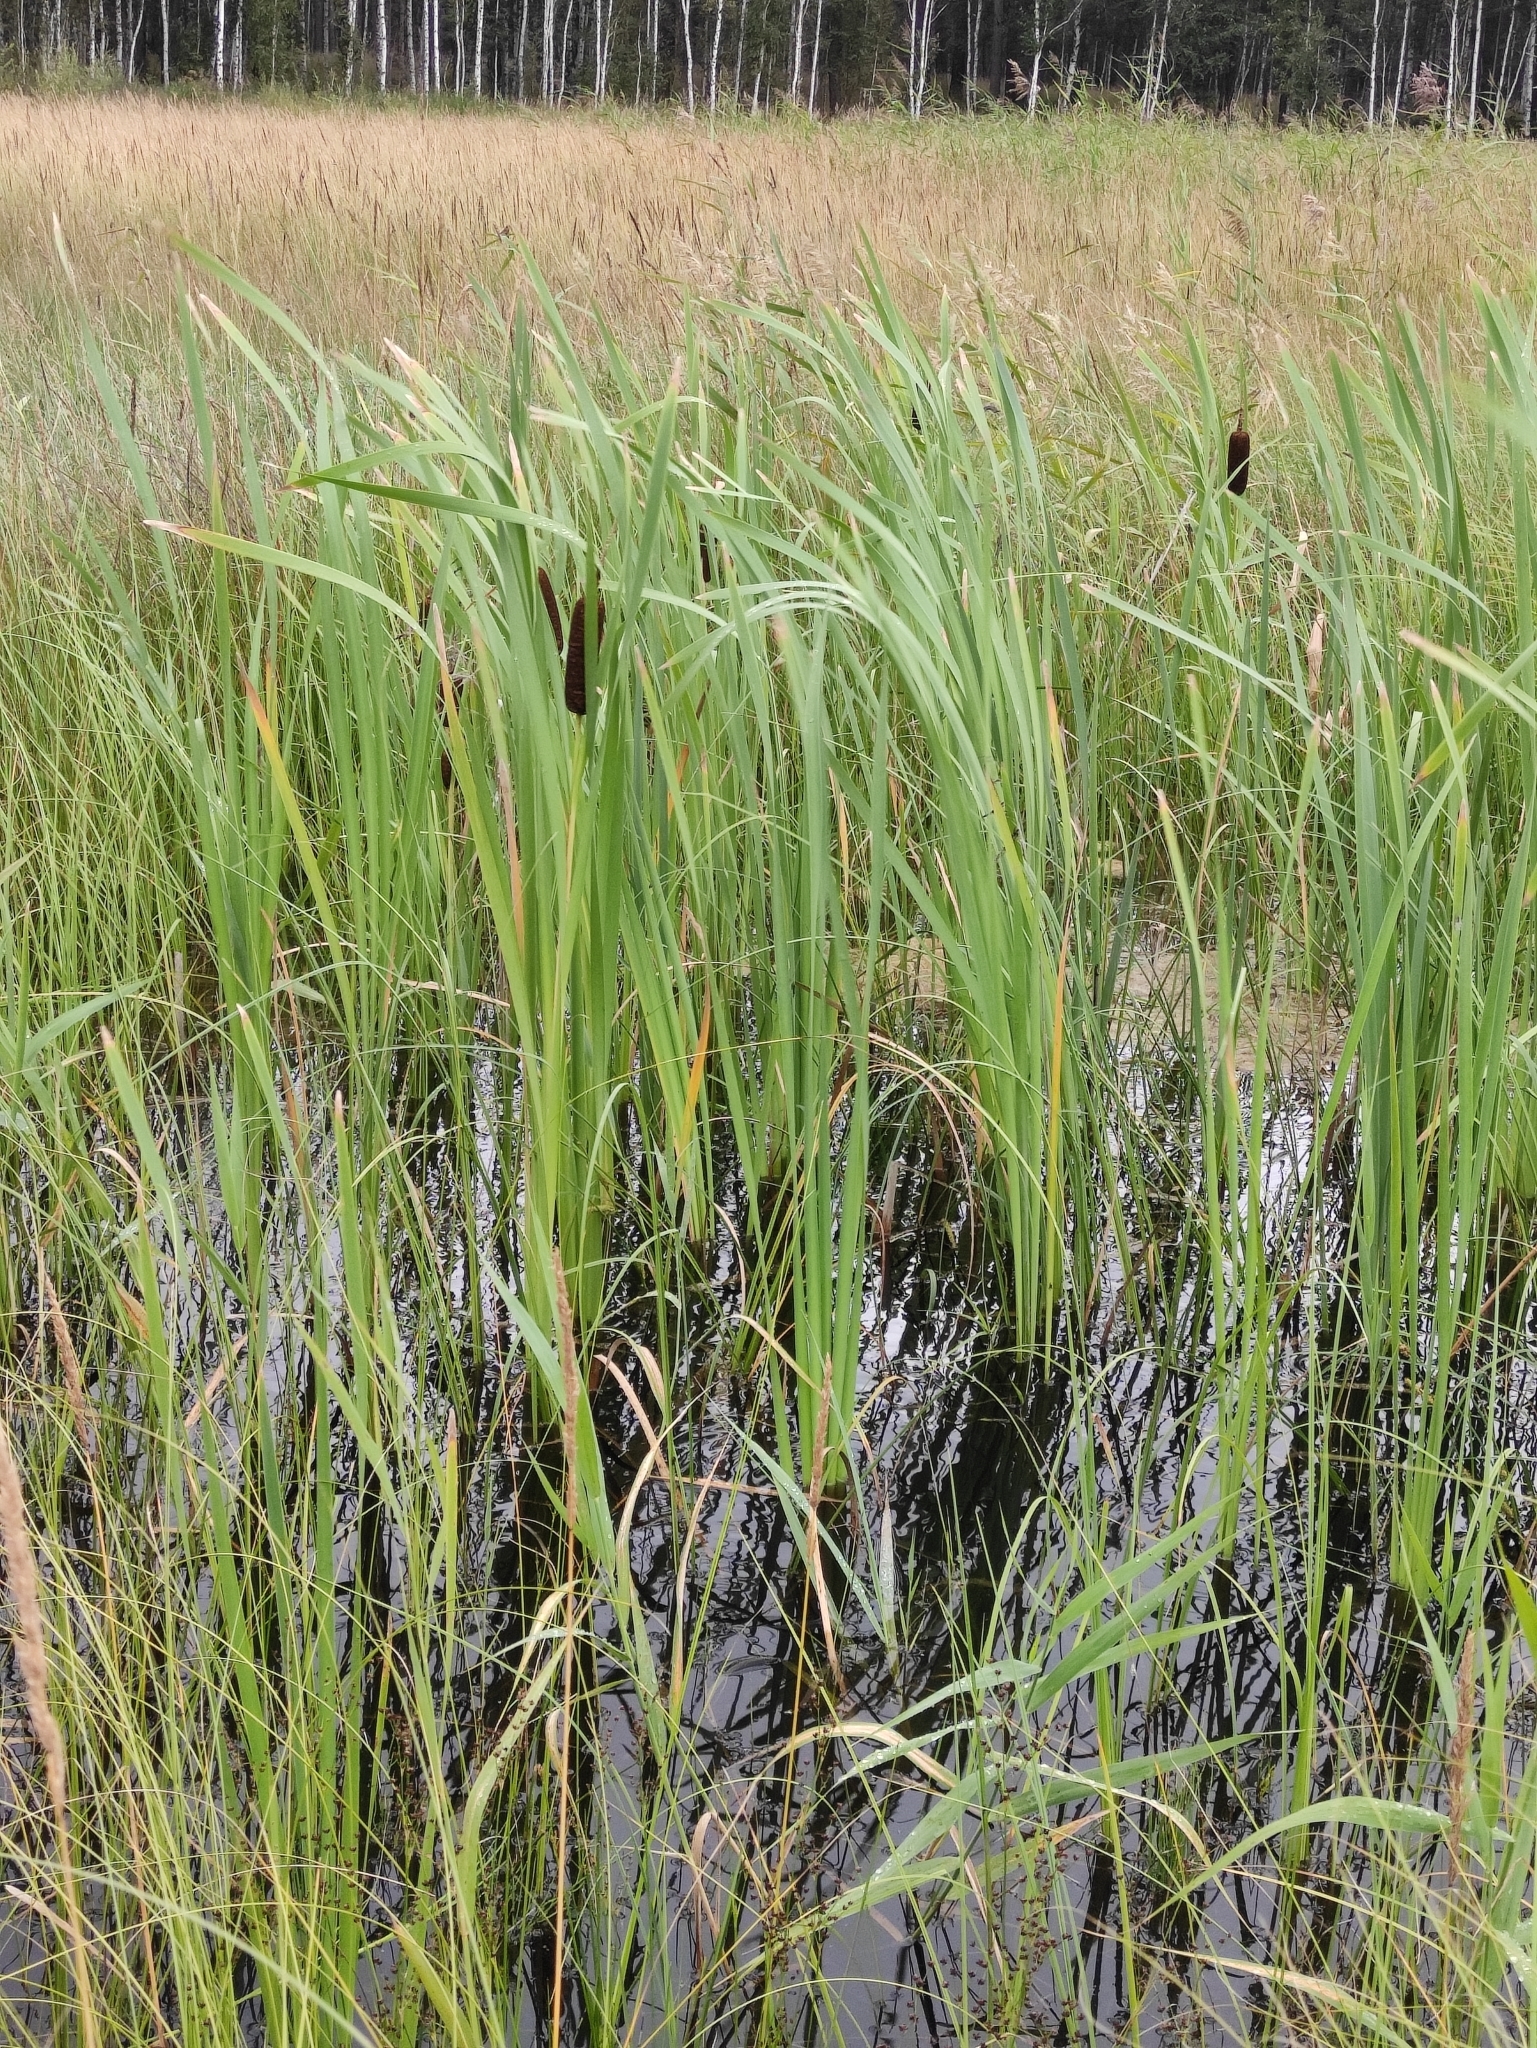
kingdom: Plantae
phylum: Tracheophyta
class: Liliopsida
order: Poales
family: Typhaceae
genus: Typha
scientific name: Typha latifolia
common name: Broadleaf cattail
